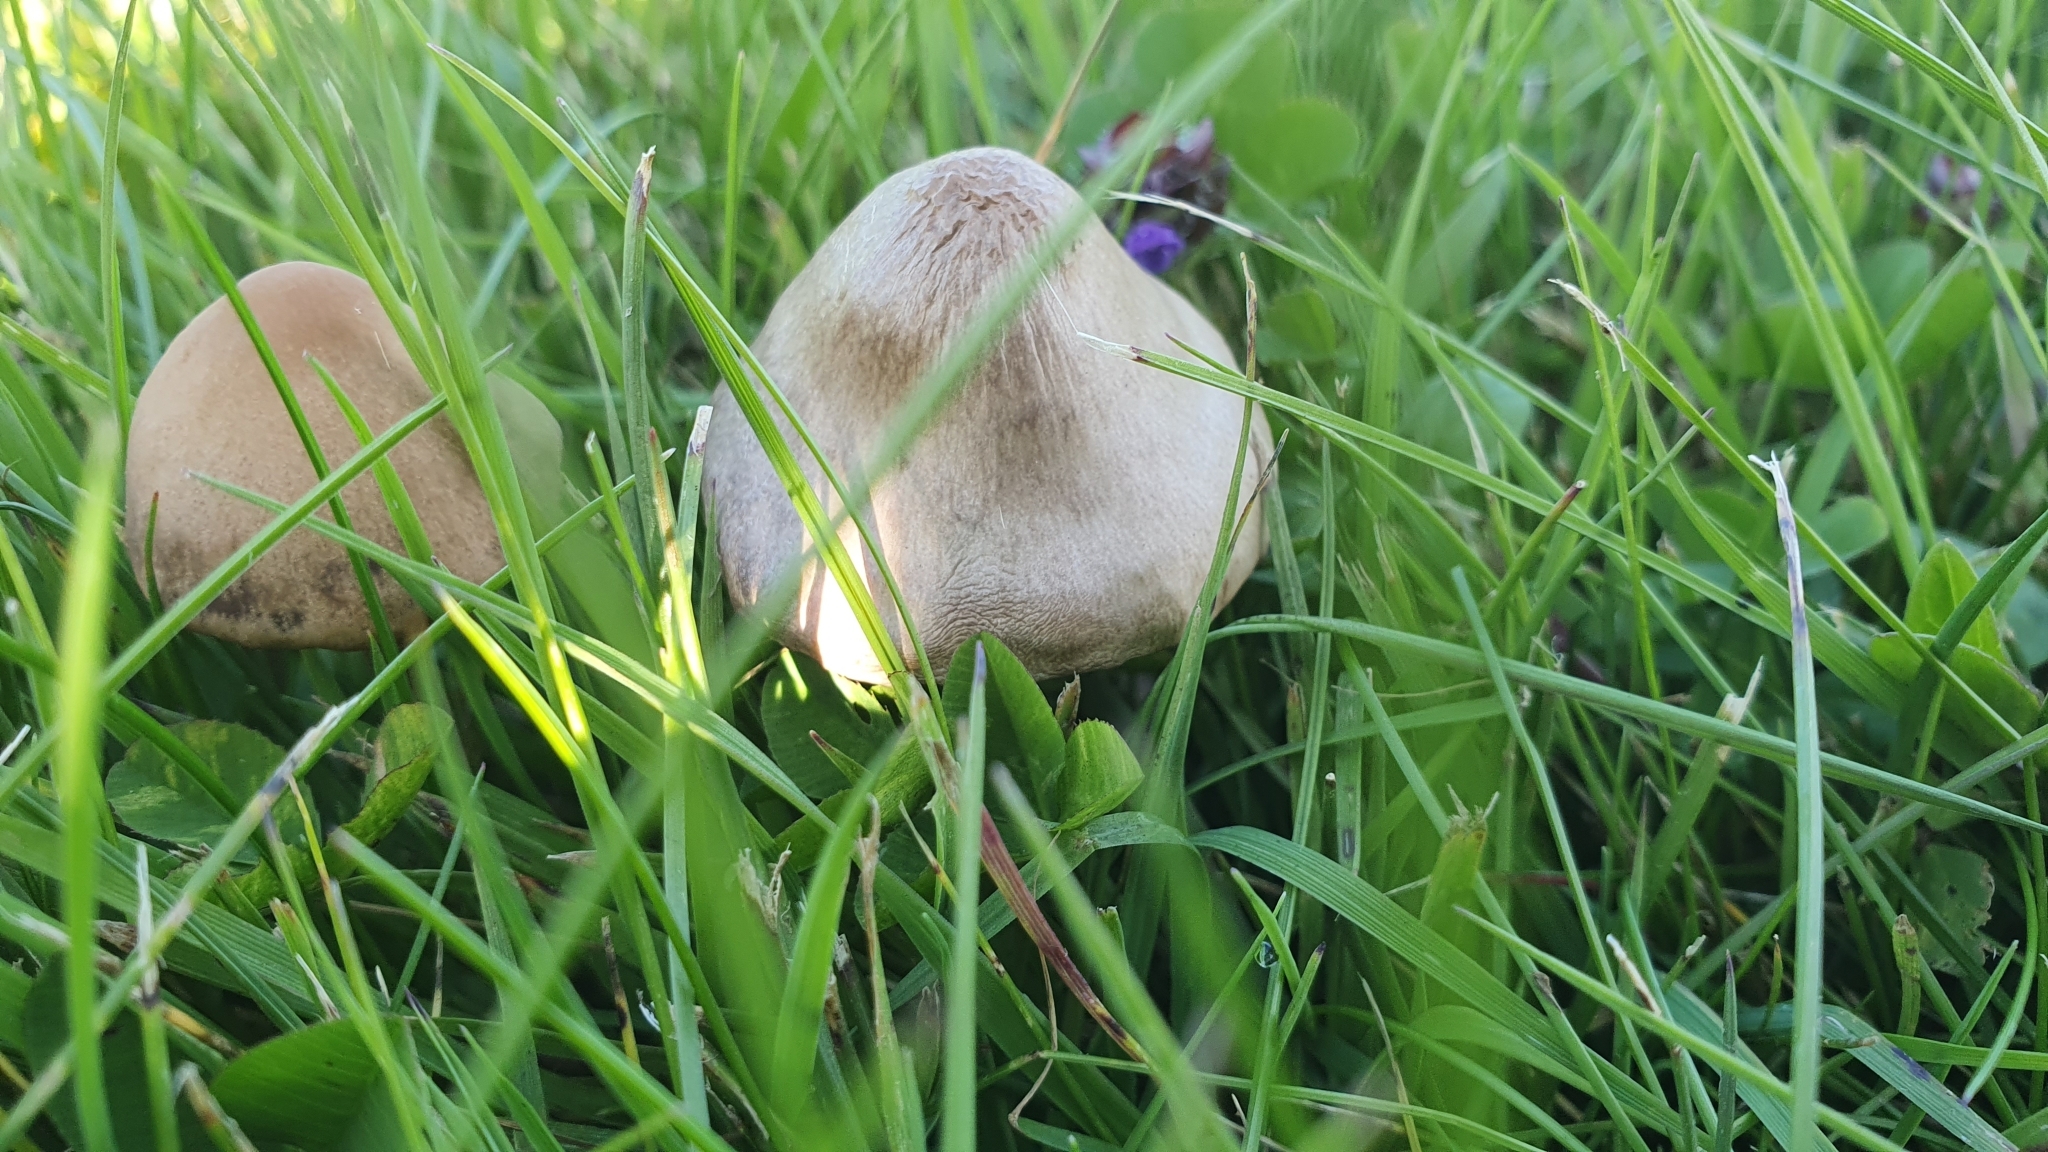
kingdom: Fungi
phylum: Basidiomycota
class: Agaricomycetes
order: Agaricales
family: Bolbitiaceae
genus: Panaeolina
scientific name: Panaeolina foenisecii
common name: Brown hay cap
